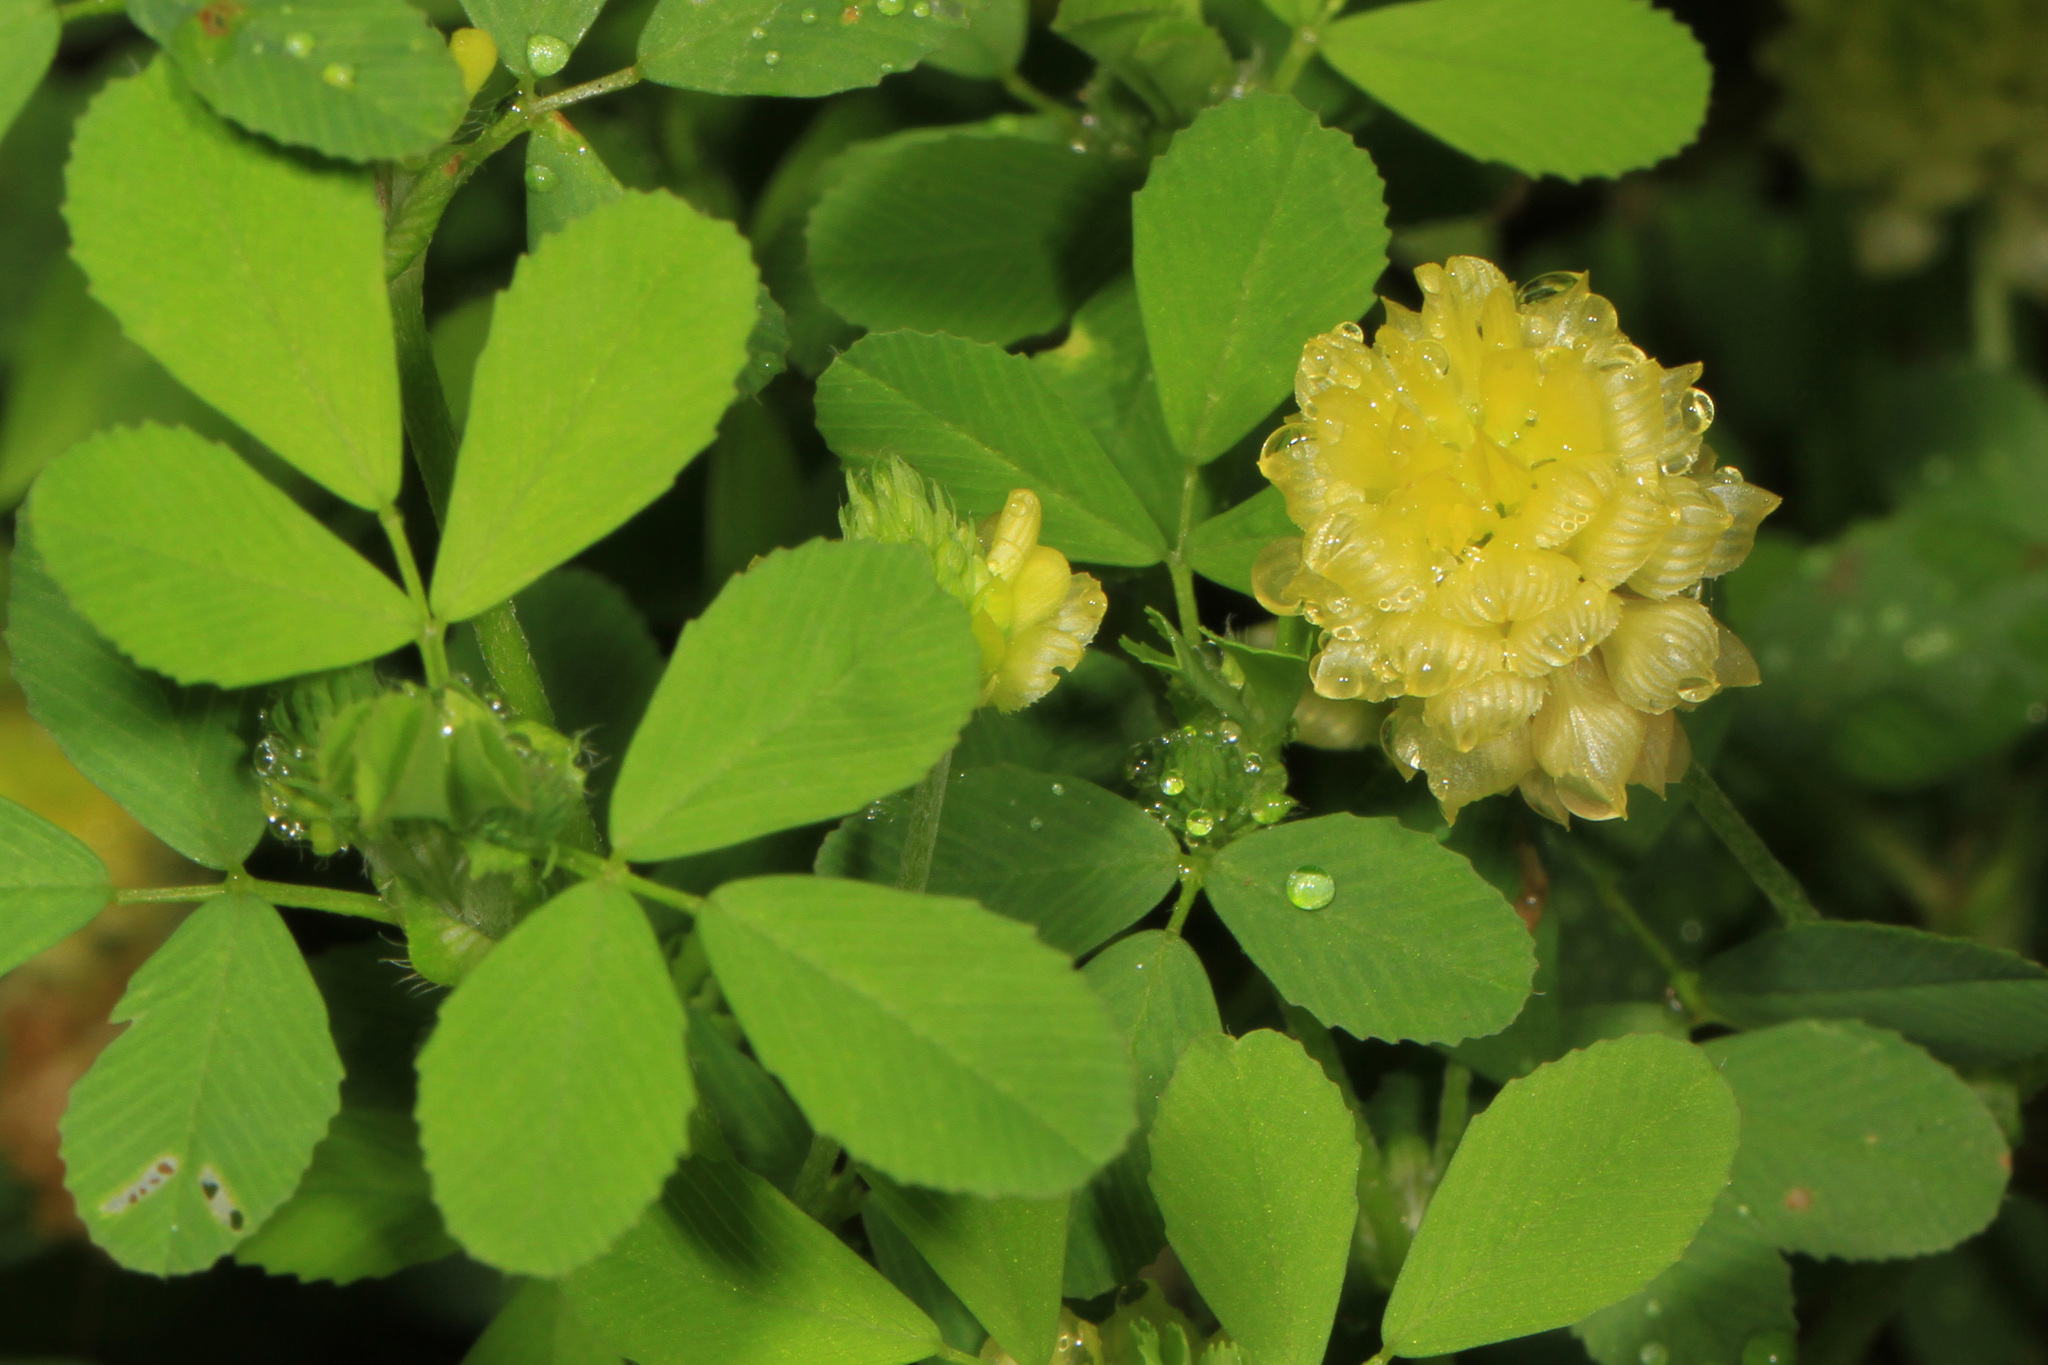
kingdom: Plantae
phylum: Tracheophyta
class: Magnoliopsida
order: Fabales
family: Fabaceae
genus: Trifolium
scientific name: Trifolium campestre
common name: Field clover
